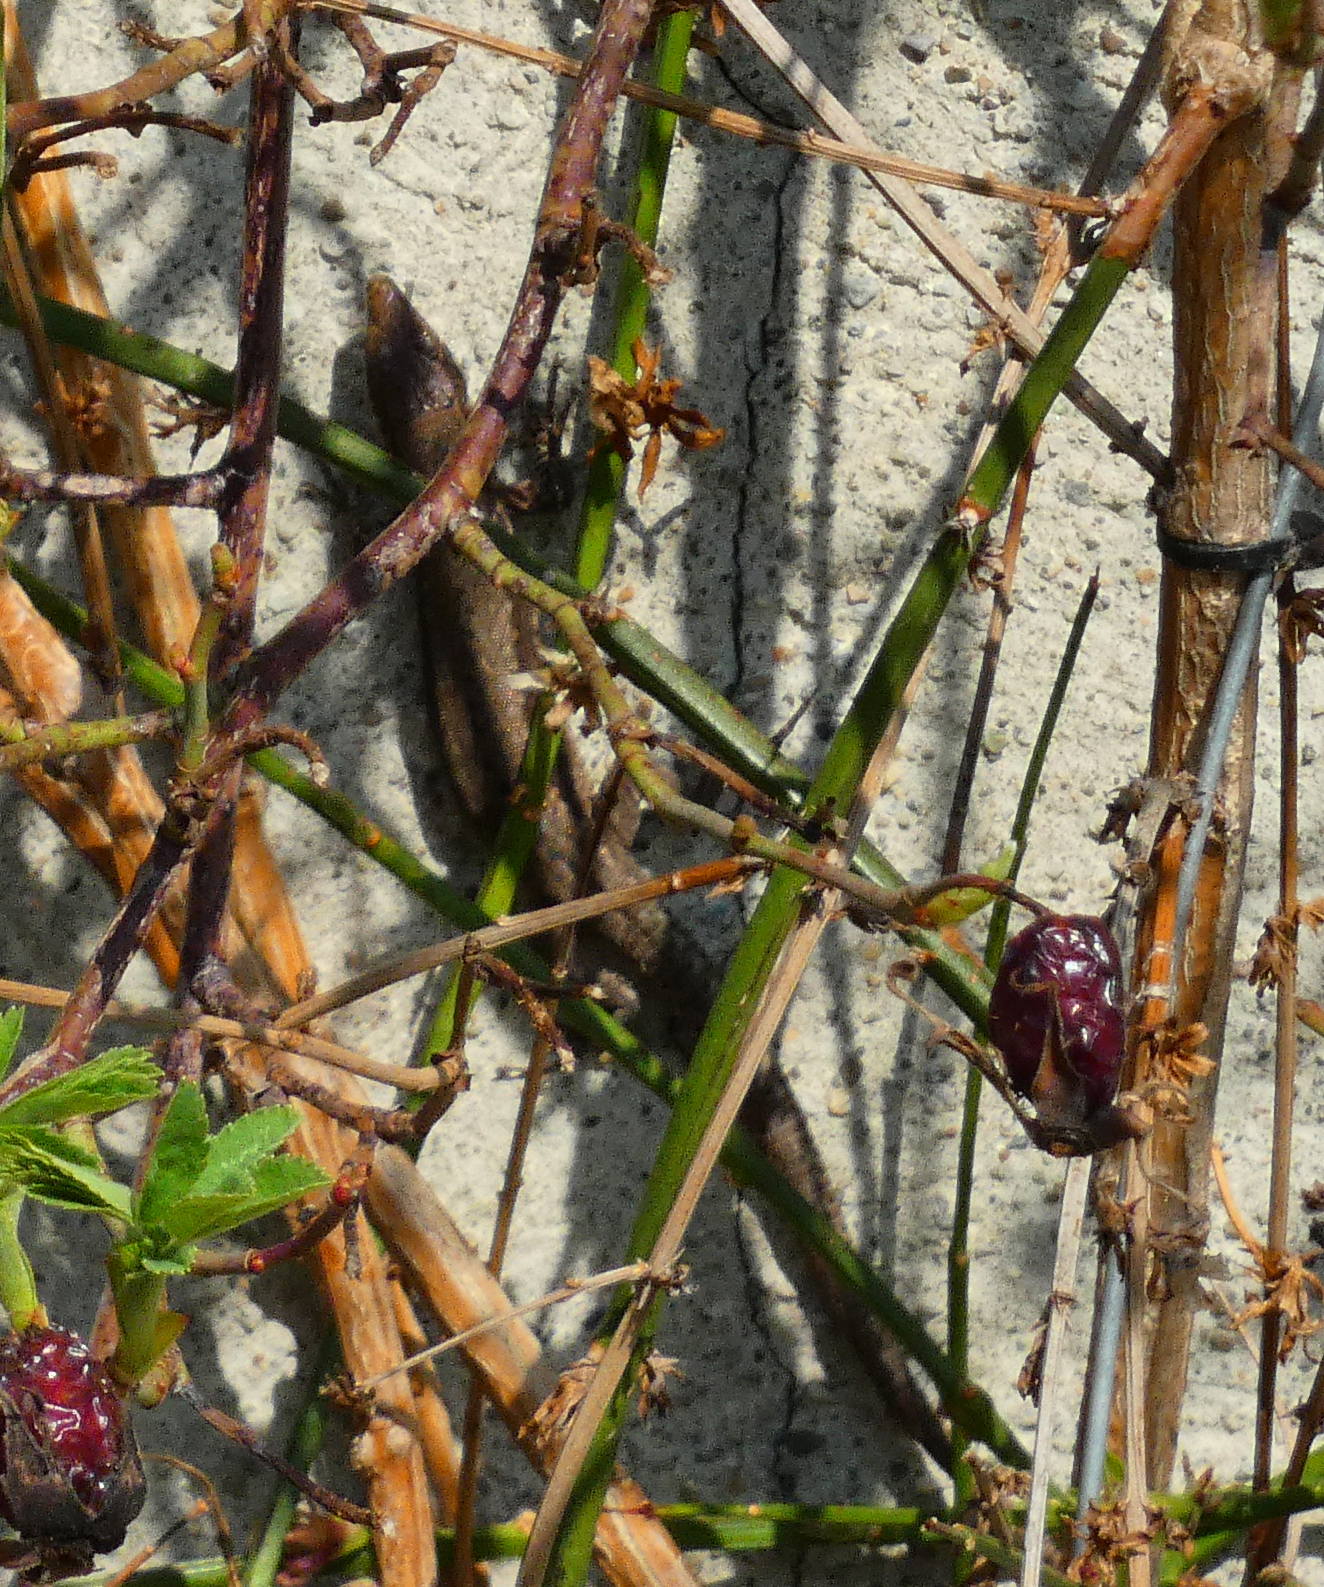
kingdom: Animalia
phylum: Chordata
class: Squamata
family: Lacertidae
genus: Podarcis
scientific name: Podarcis muralis
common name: Common wall lizard
